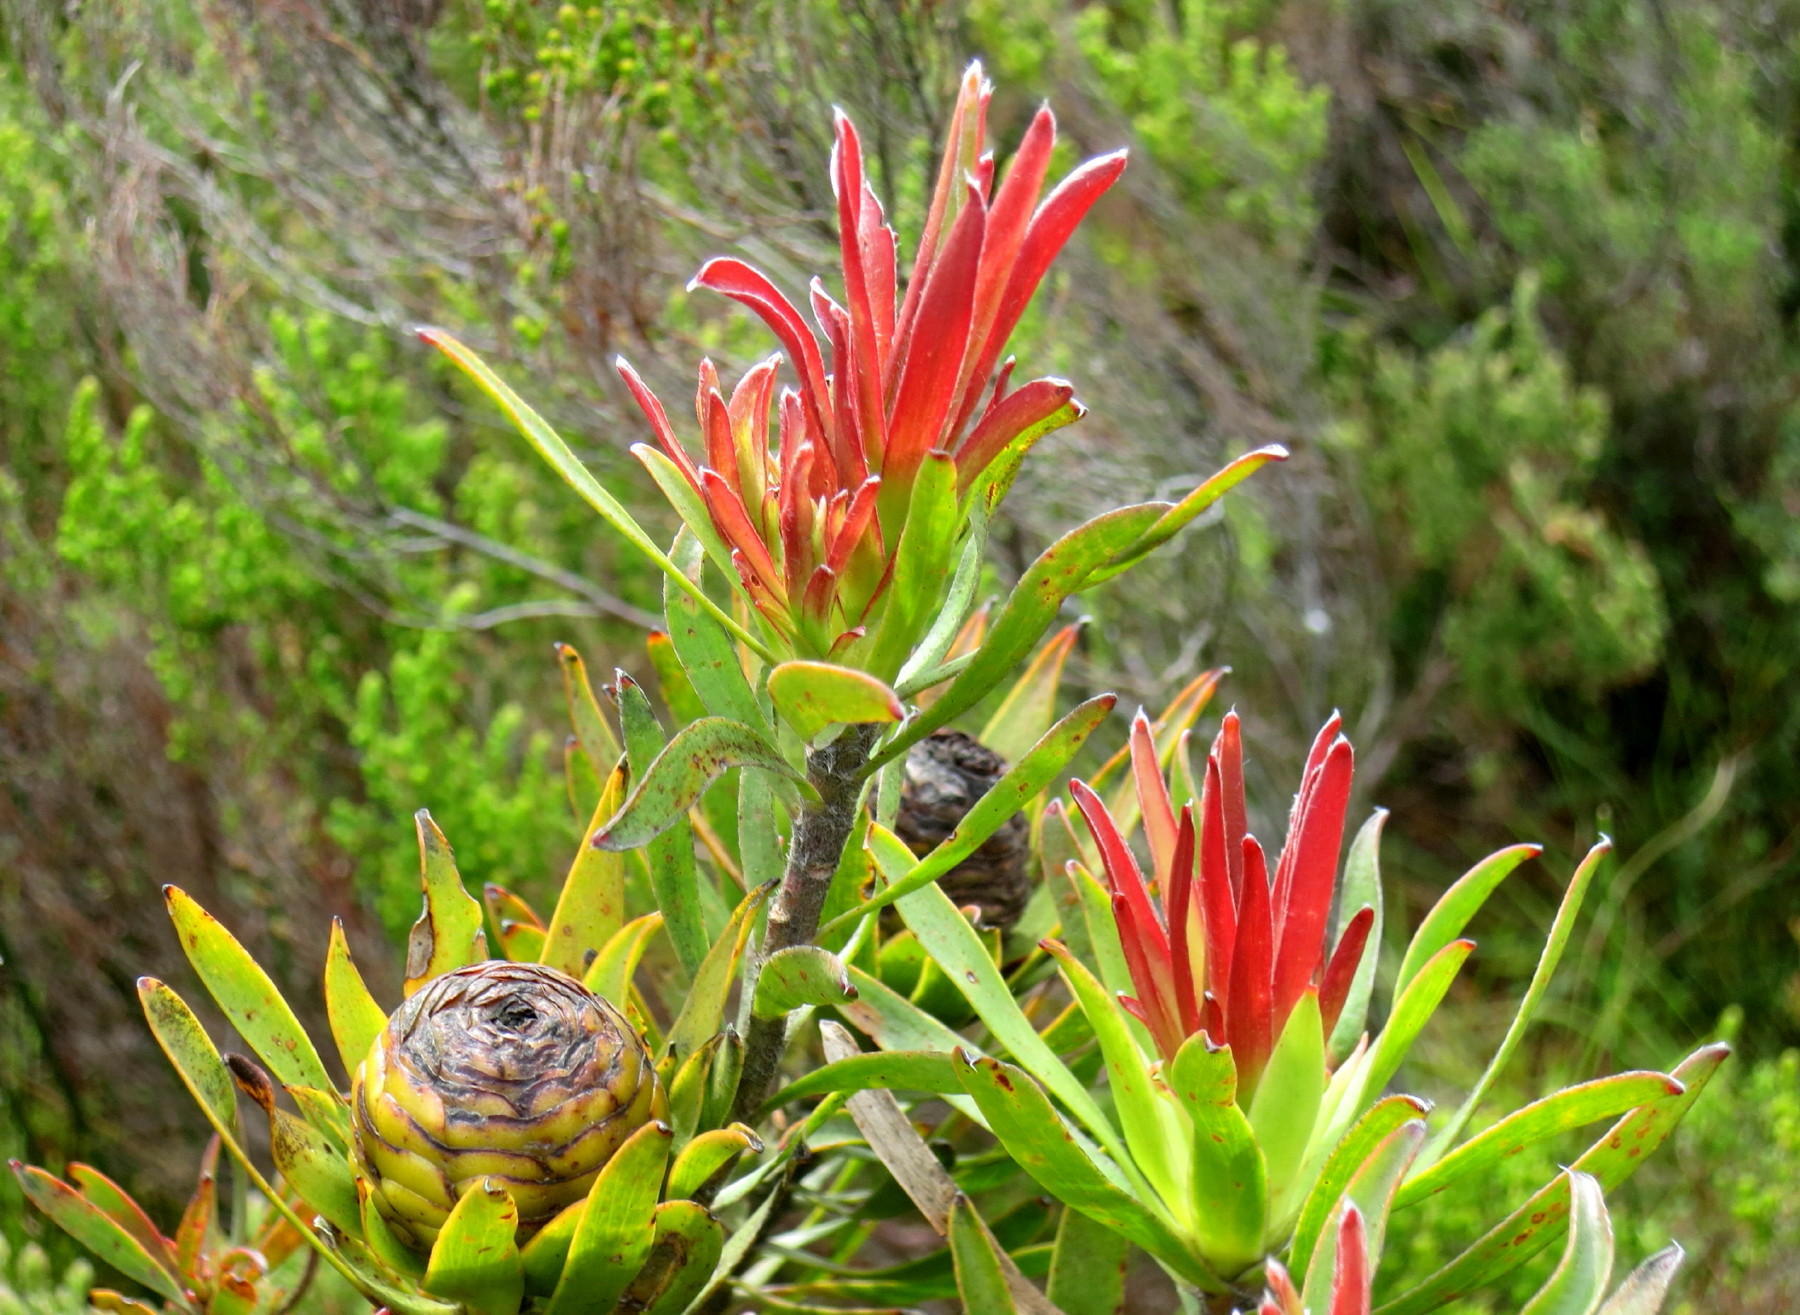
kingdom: Plantae
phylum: Tracheophyta
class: Magnoliopsida
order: Proteales
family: Proteaceae
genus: Leucadendron
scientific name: Leucadendron eucalyptifolium
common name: Gum-leaved conebush
